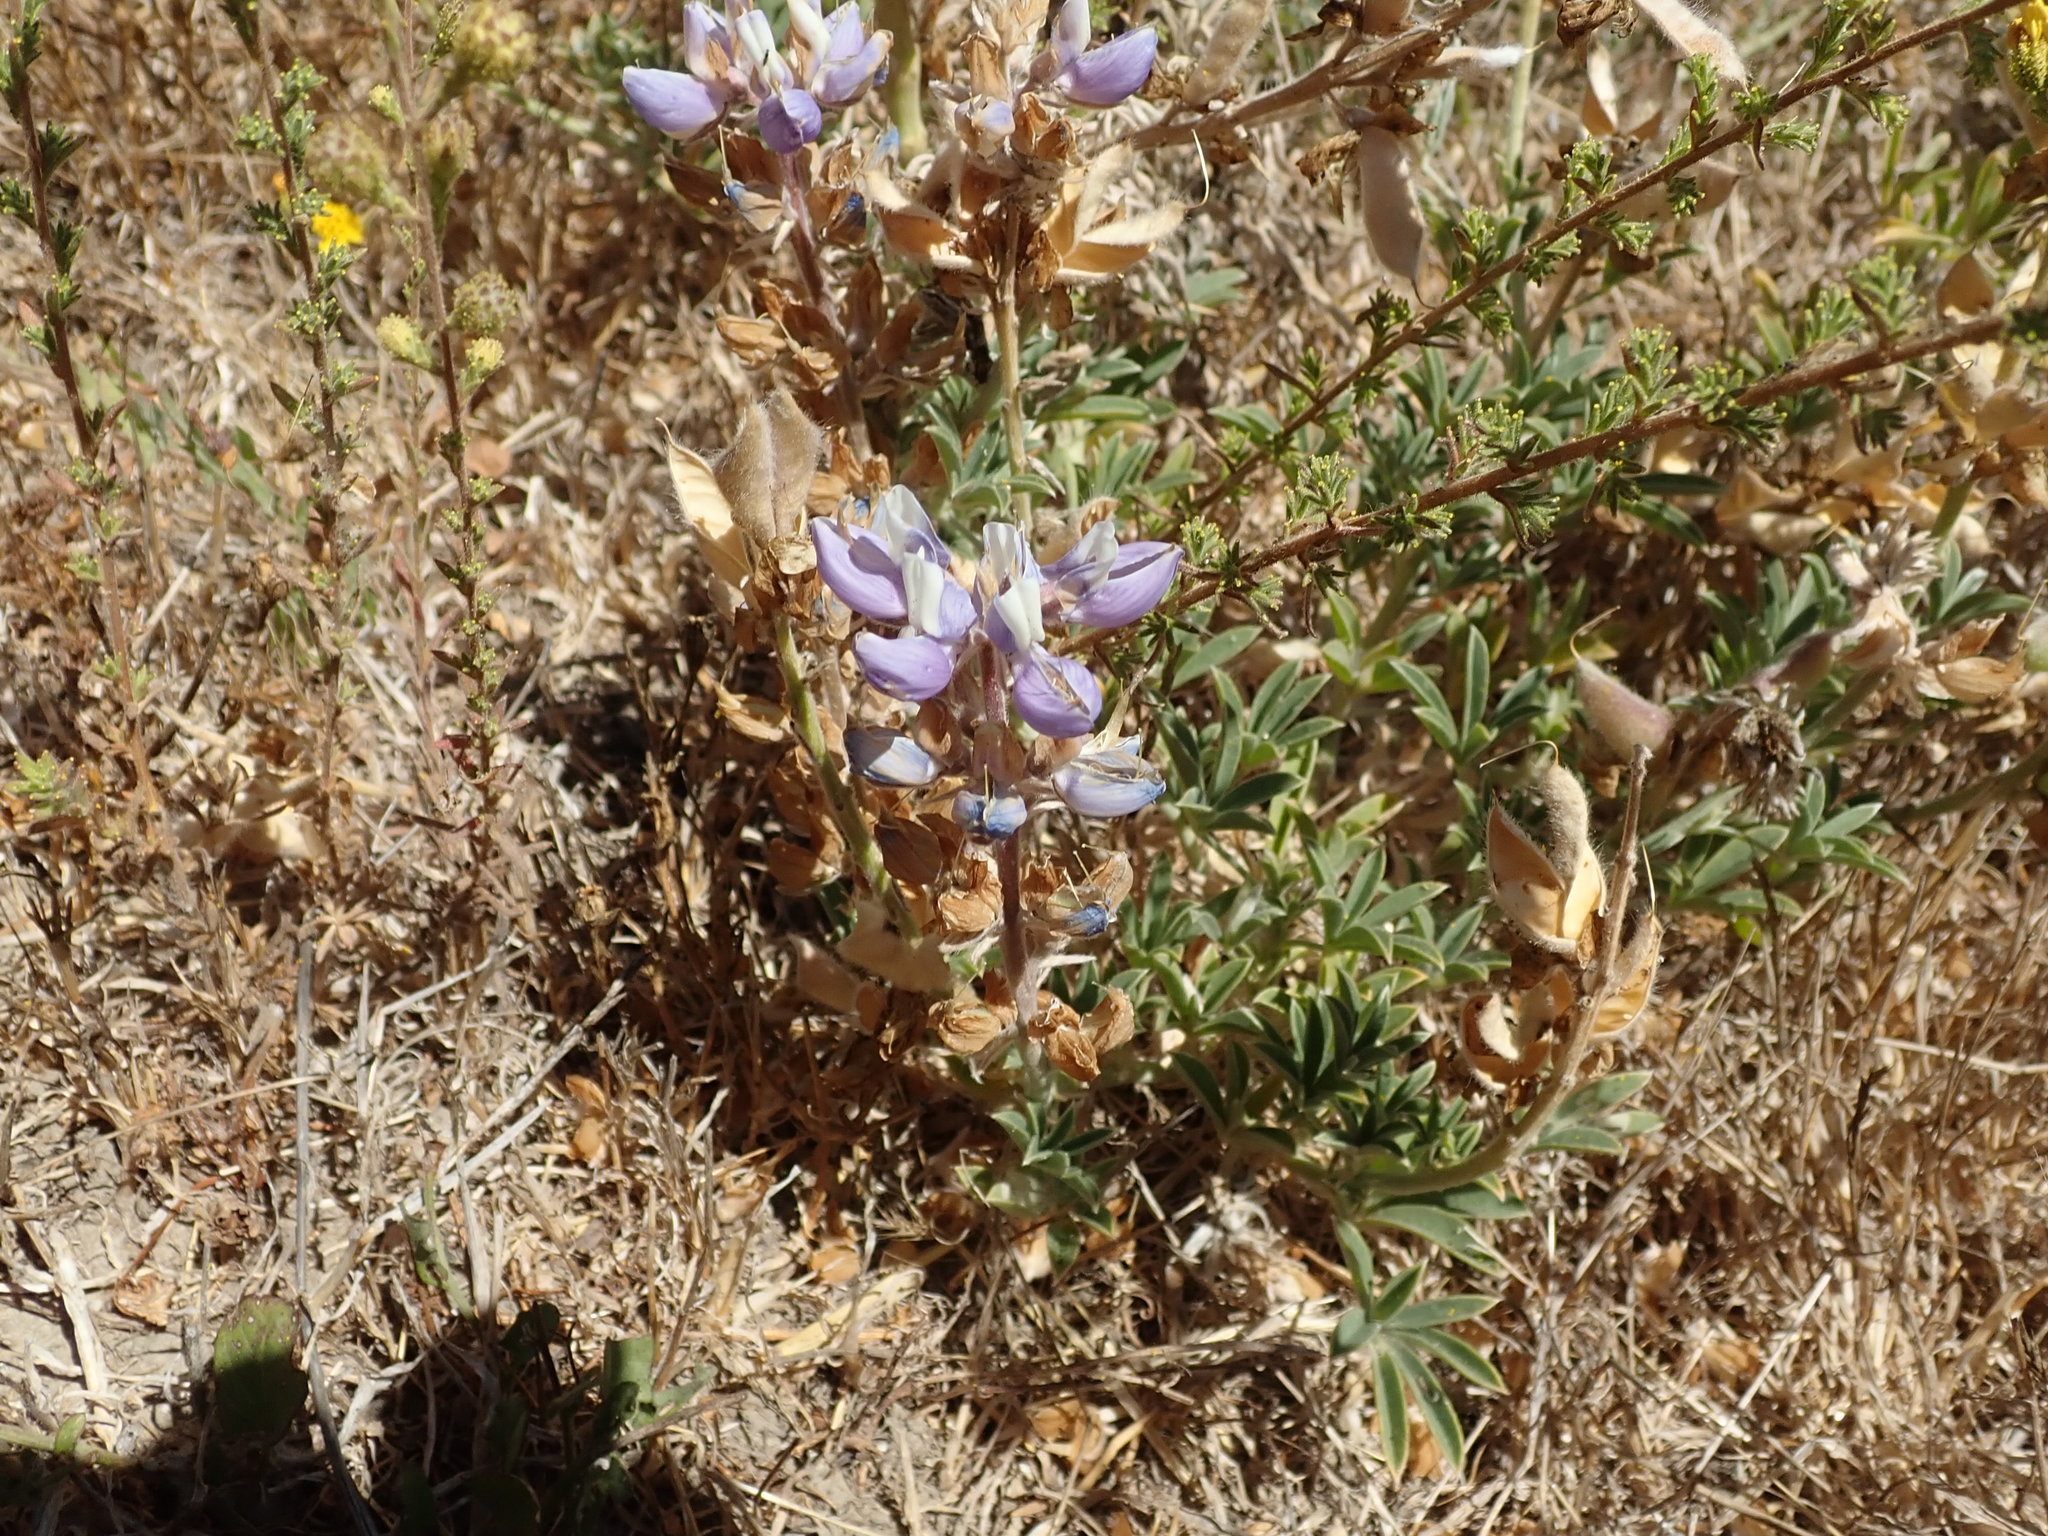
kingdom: Plantae
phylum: Tracheophyta
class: Magnoliopsida
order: Fabales
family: Fabaceae
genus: Lupinus
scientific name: Lupinus formosus
